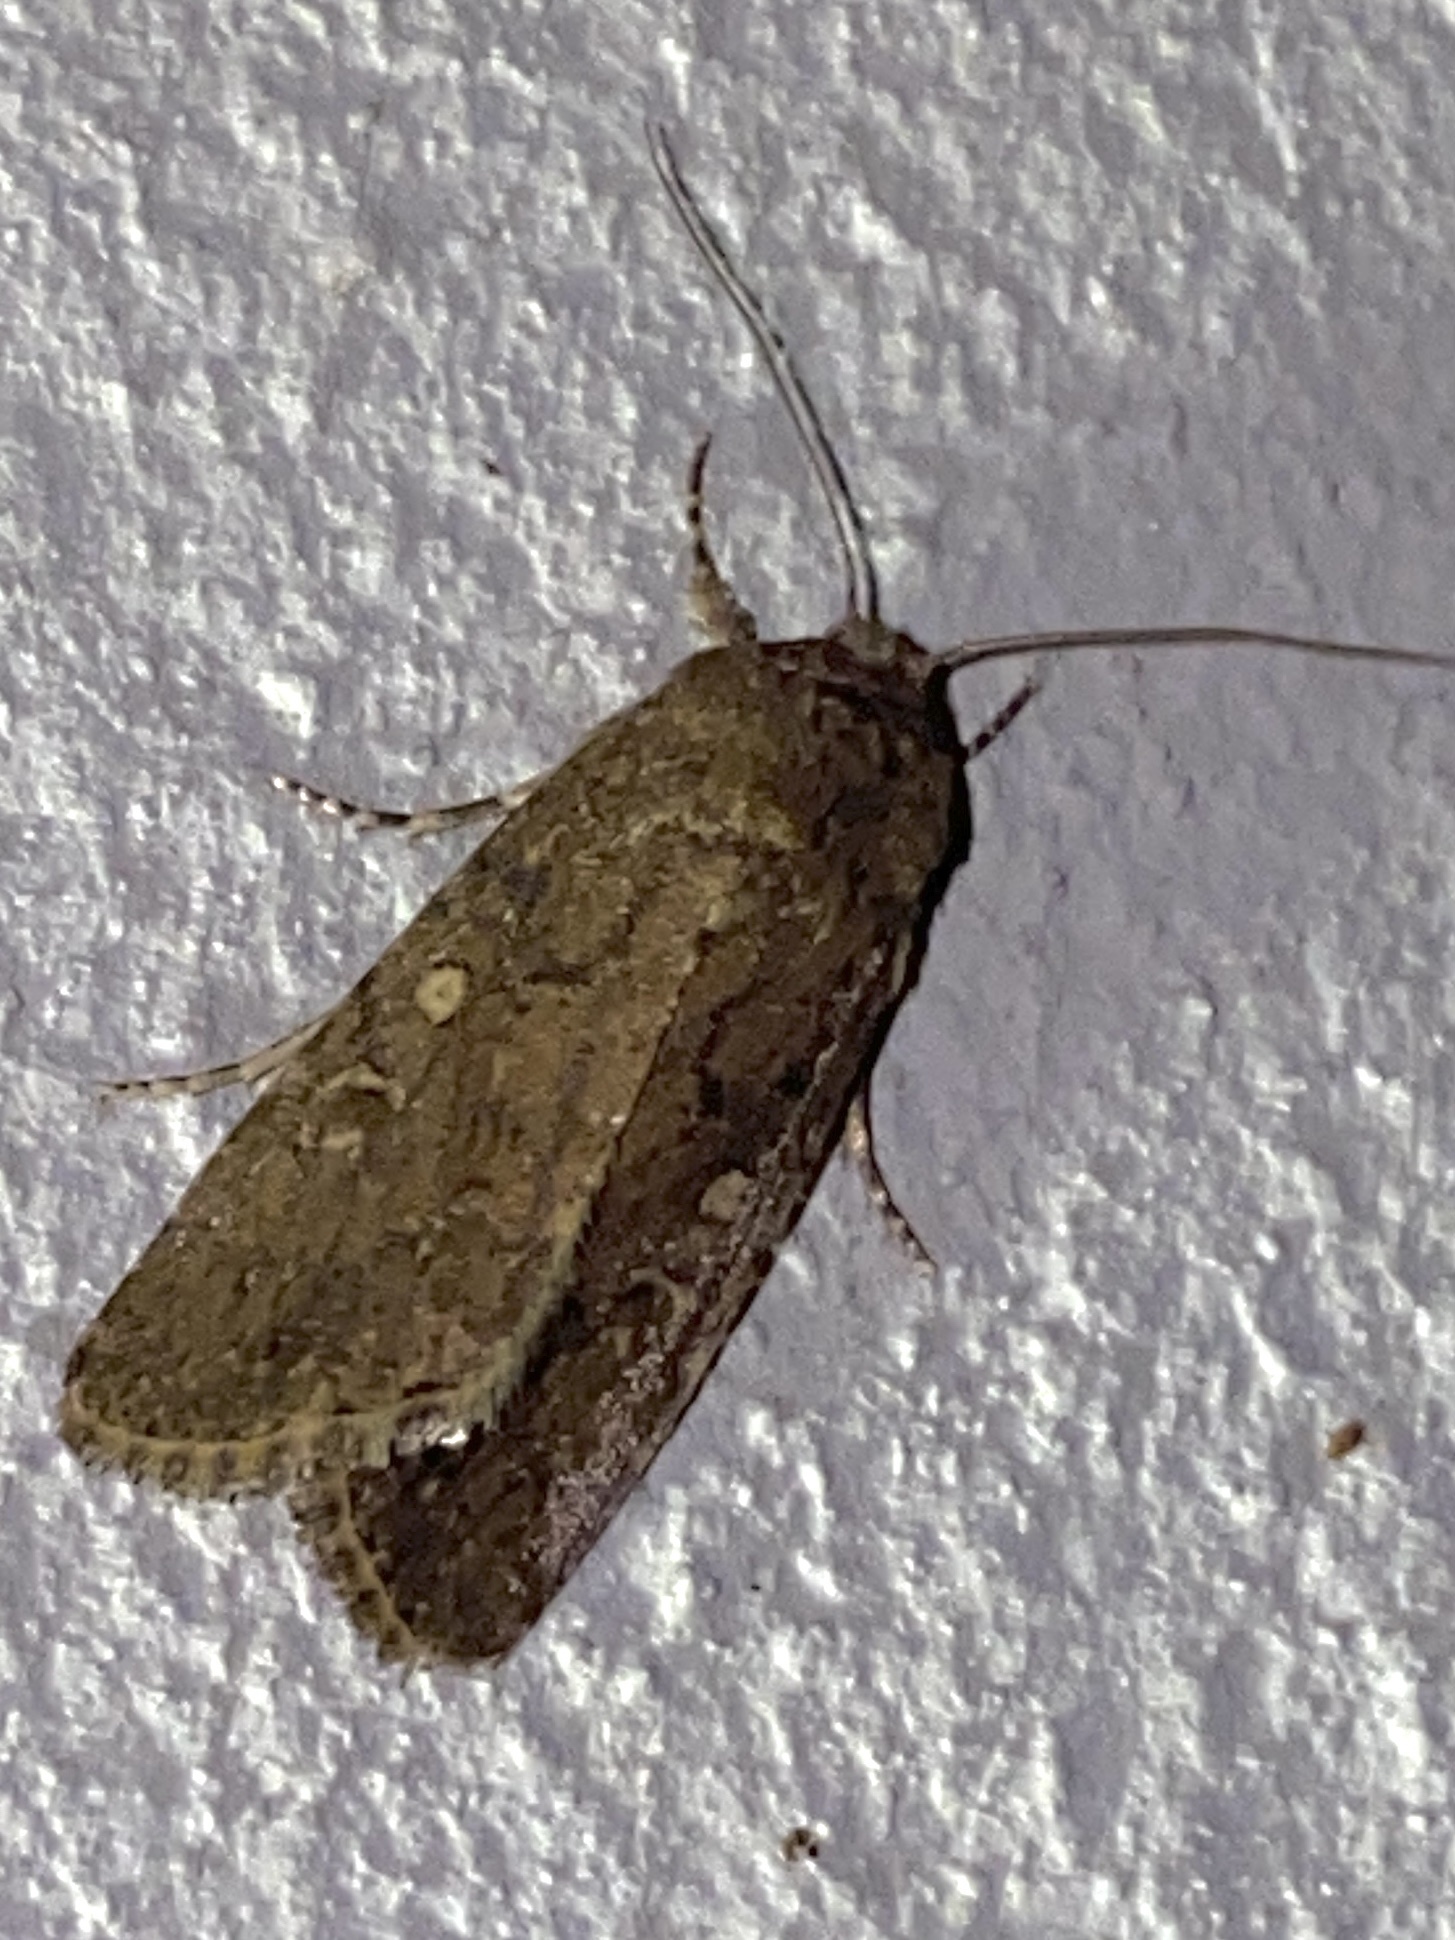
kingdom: Animalia
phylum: Arthropoda
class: Insecta
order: Lepidoptera
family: Noctuidae
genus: Spodoptera
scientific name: Spodoptera cilium
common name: Dark mottled willow
